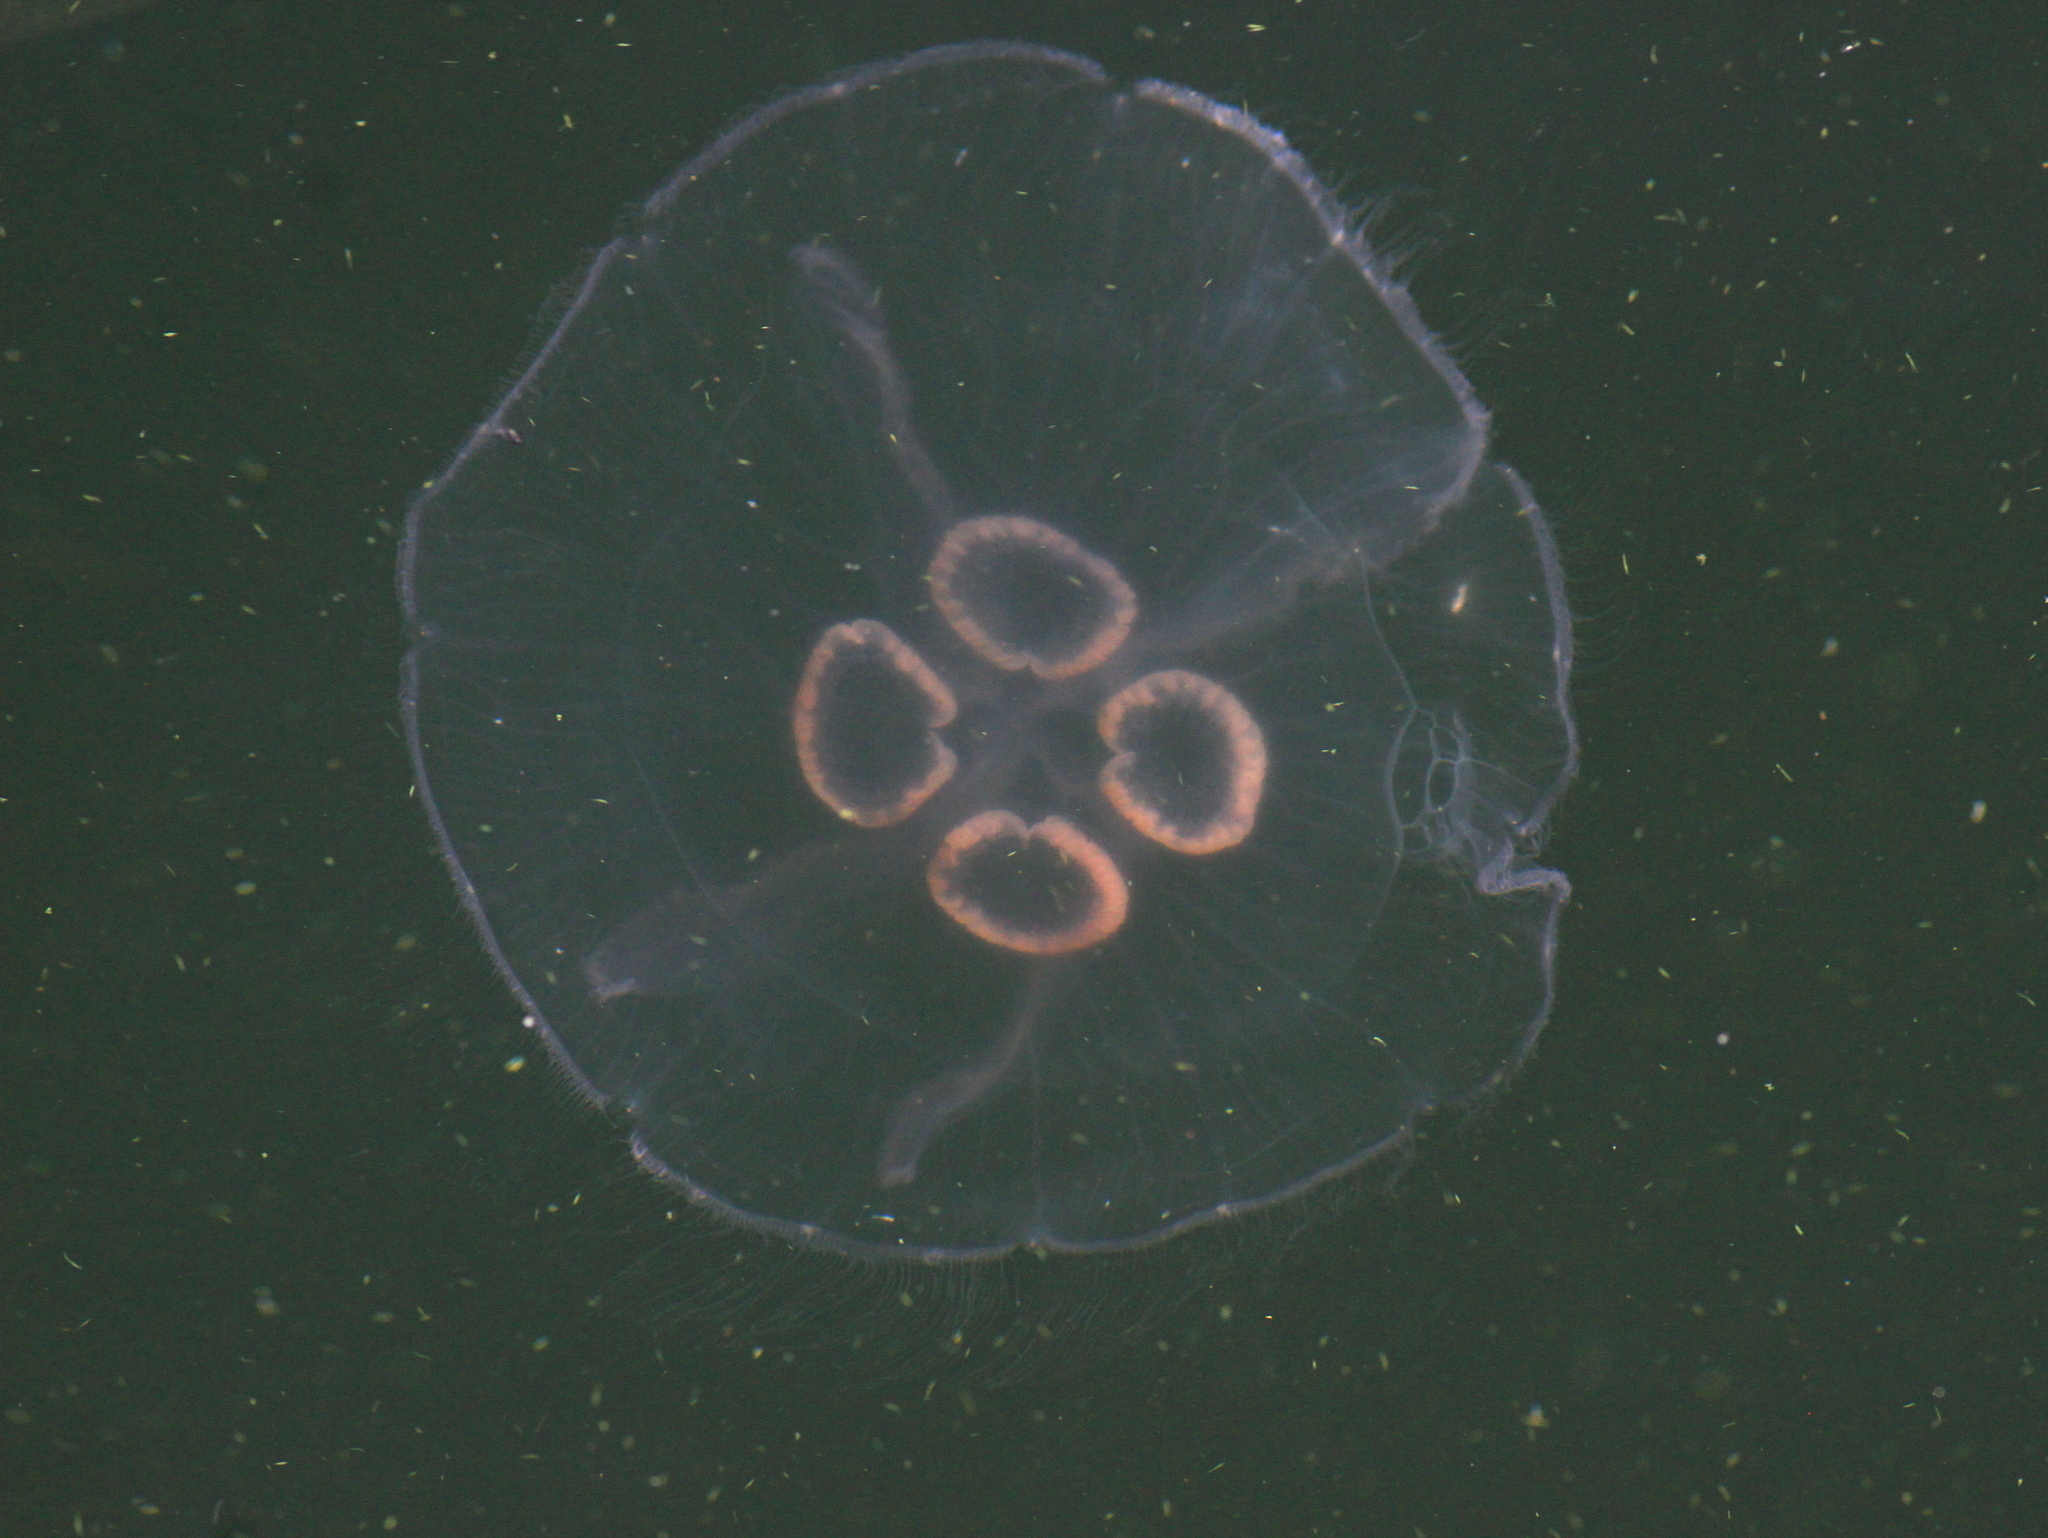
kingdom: Animalia
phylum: Cnidaria
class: Scyphozoa
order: Semaeostomeae
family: Ulmaridae
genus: Aurelia
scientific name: Aurelia aurita
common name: Moon jellyfish
